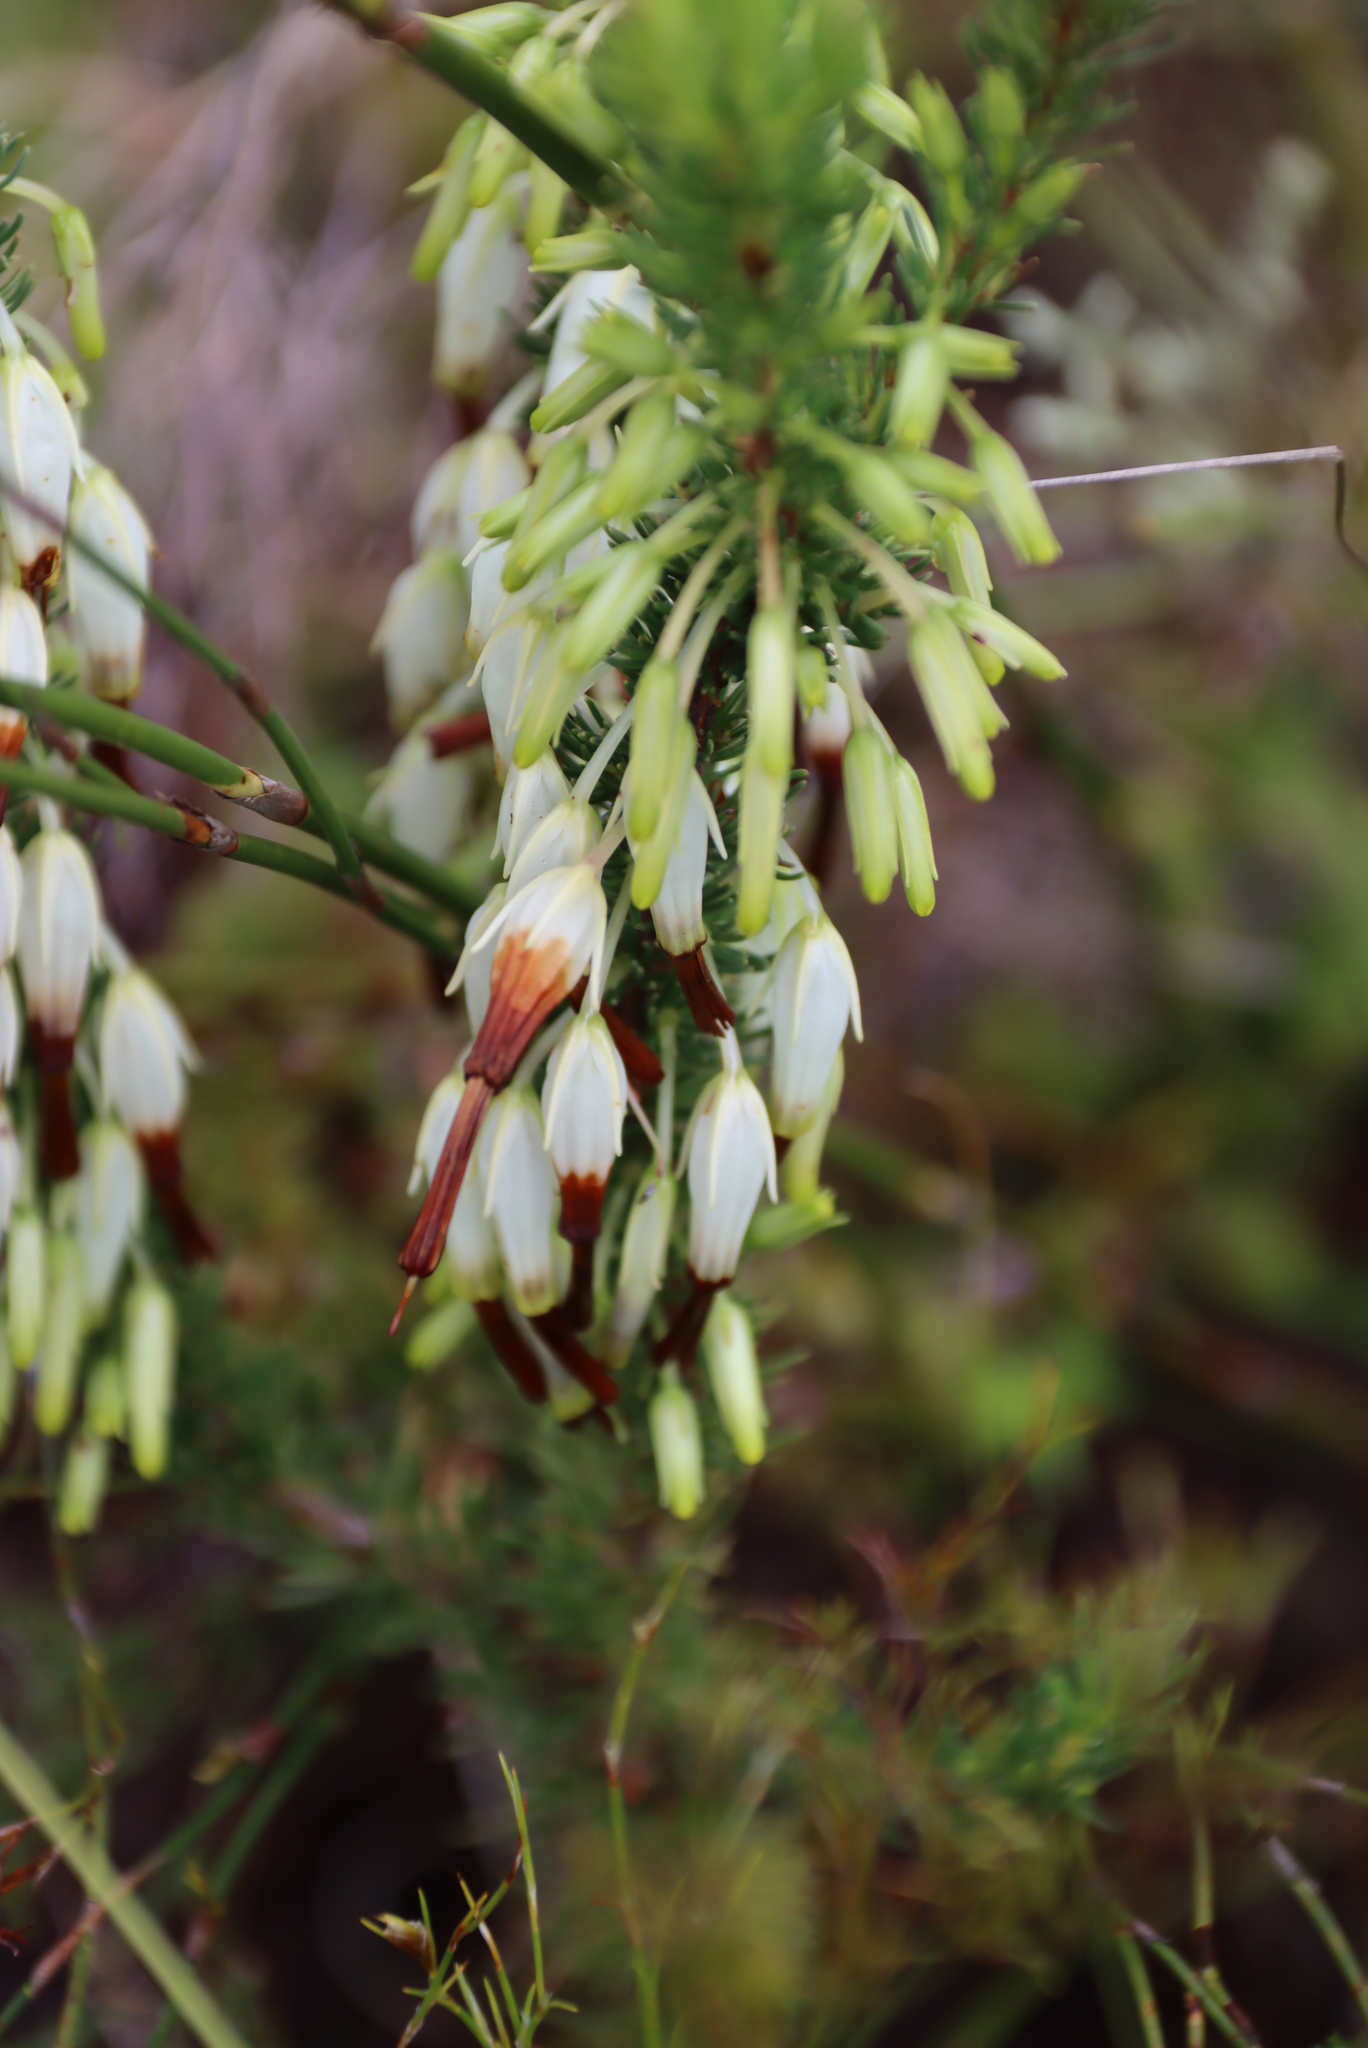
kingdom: Plantae
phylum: Tracheophyta
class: Magnoliopsida
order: Ericales
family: Ericaceae
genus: Erica
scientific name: Erica plukenetii
